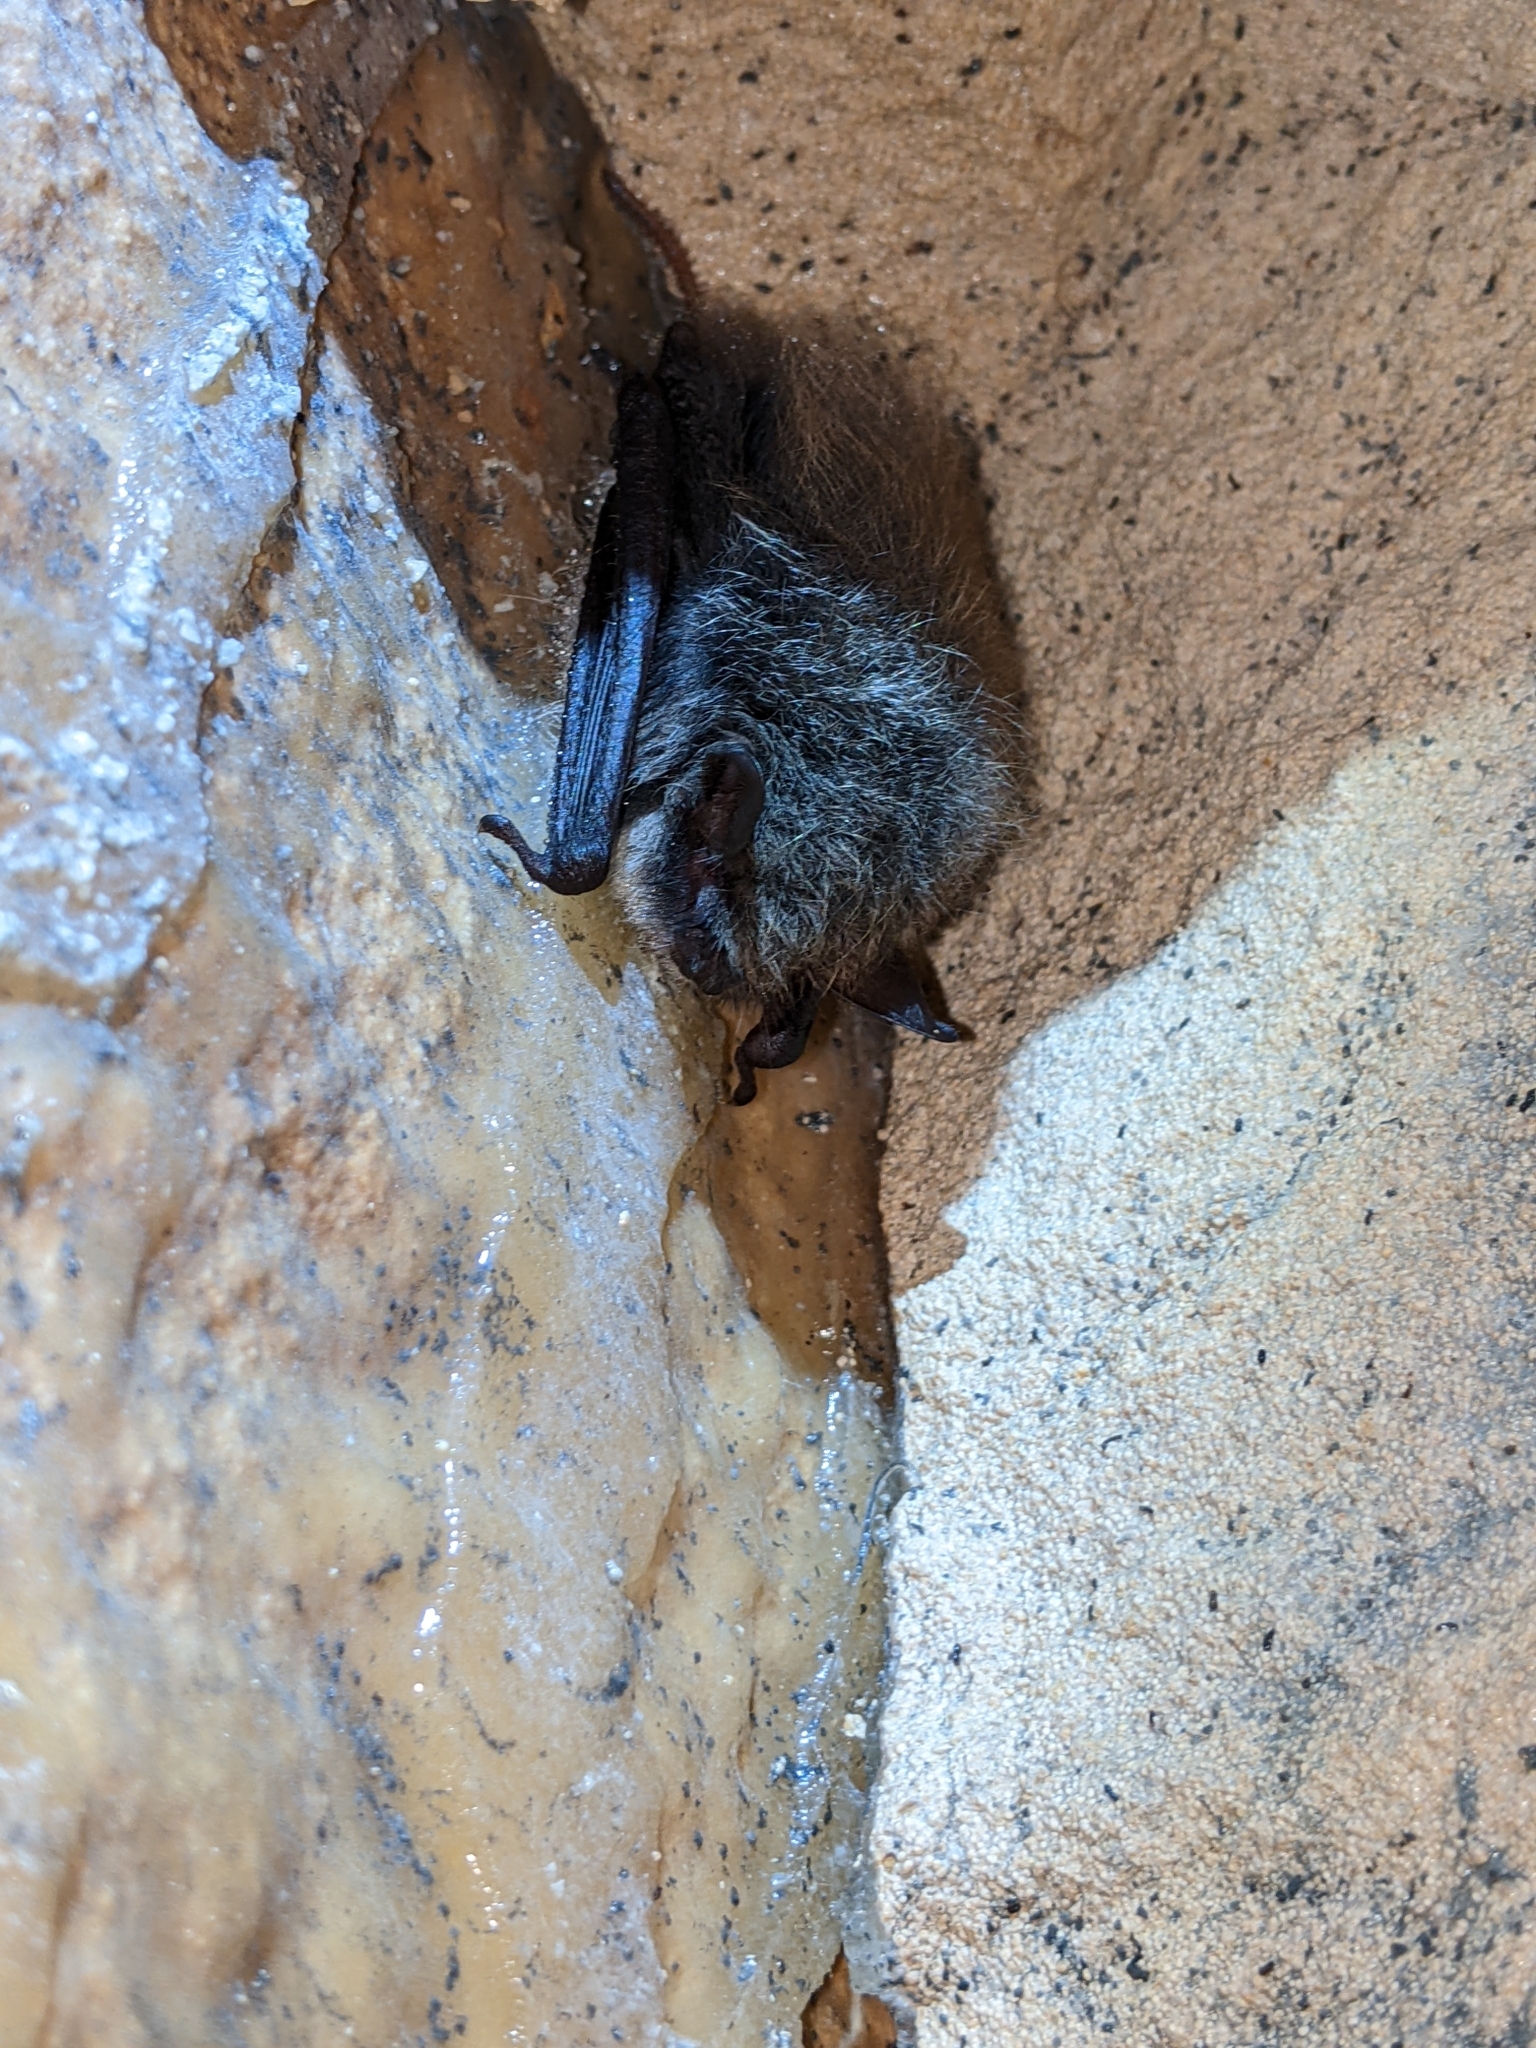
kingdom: Animalia
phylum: Chordata
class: Mammalia
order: Chiroptera
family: Vespertilionidae
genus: Myotis
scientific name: Myotis mystacinus
